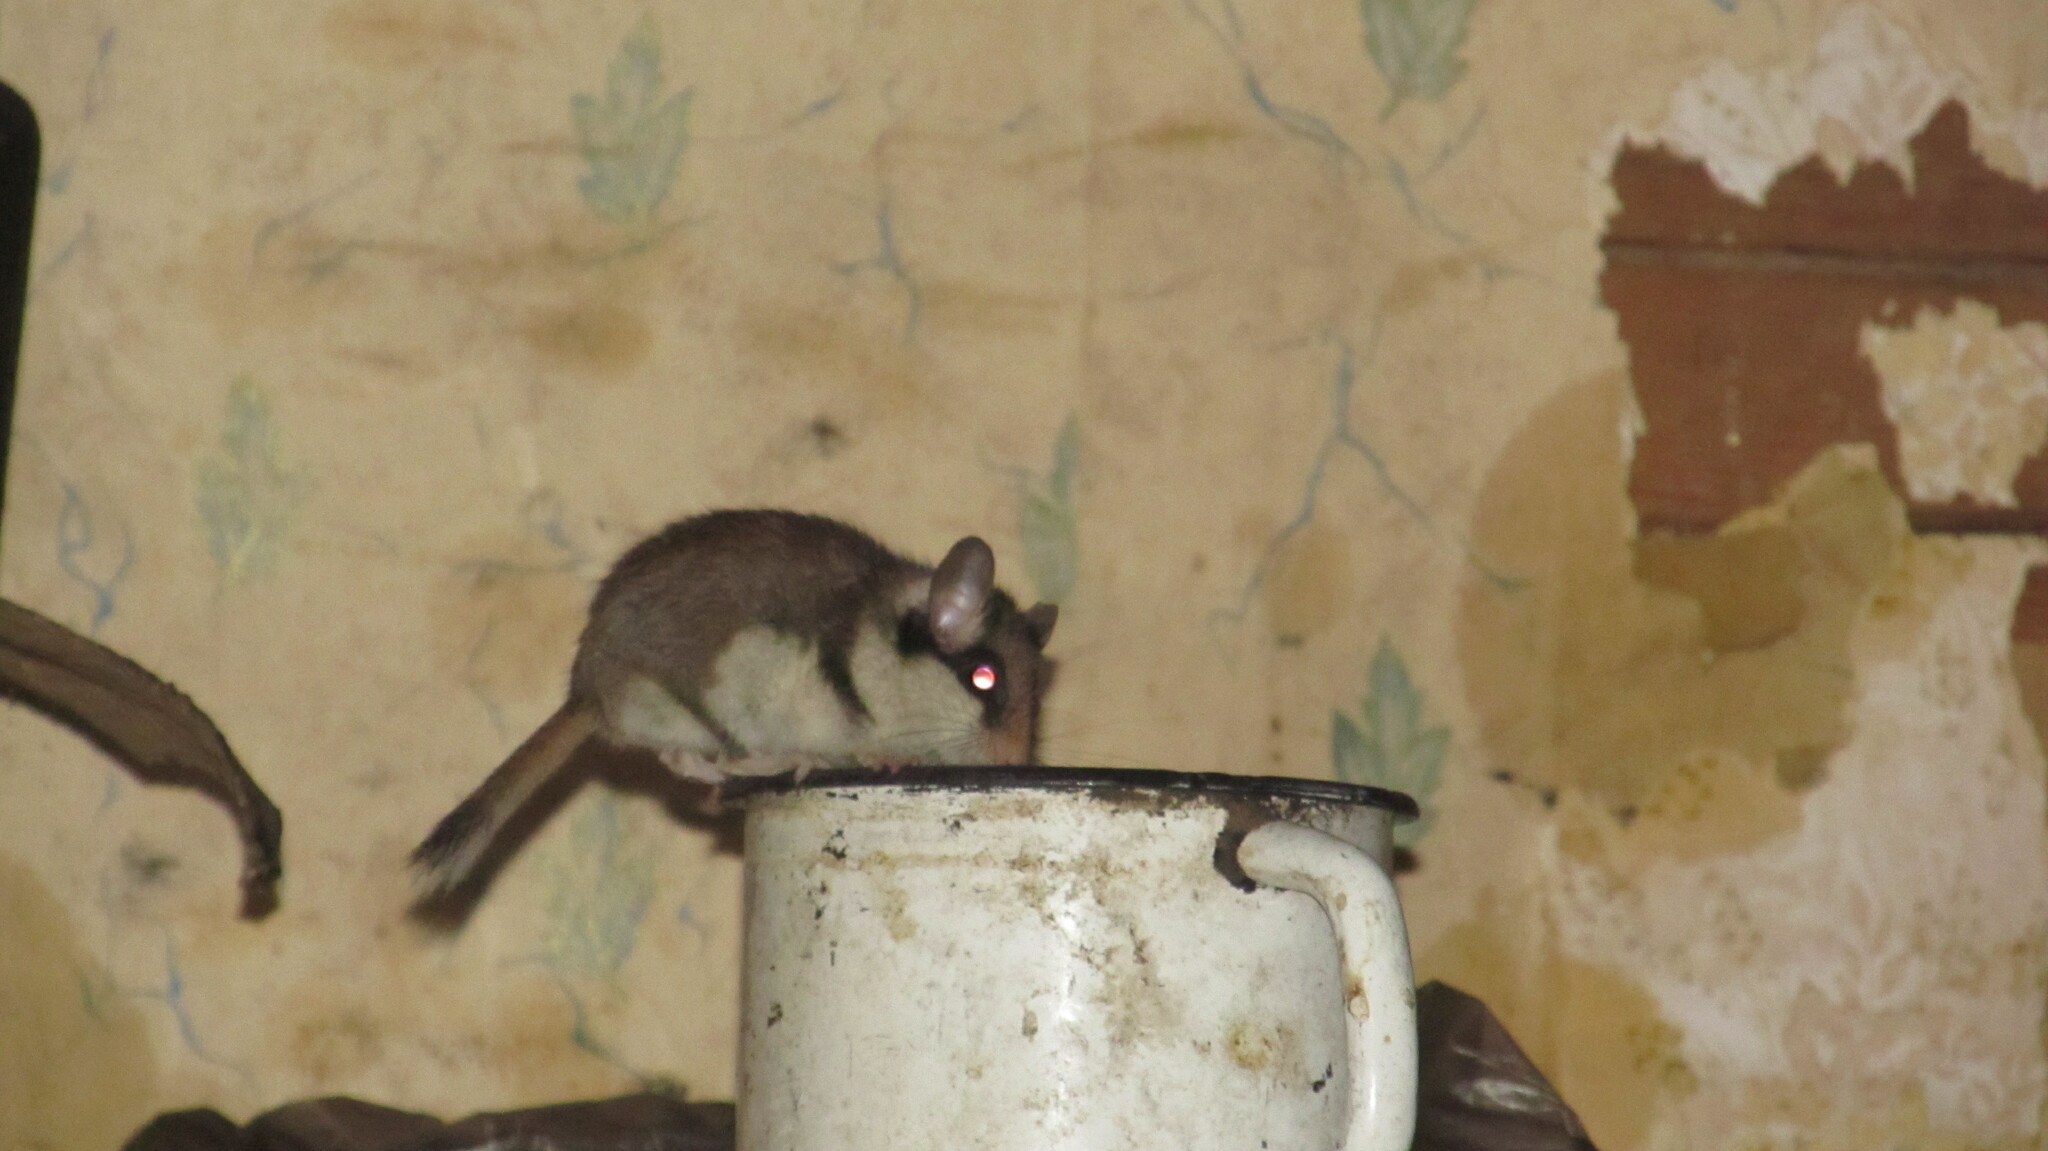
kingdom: Animalia
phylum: Chordata
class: Mammalia
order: Rodentia
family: Gliridae
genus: Eliomys
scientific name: Eliomys quercinus
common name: Garden dormouse
